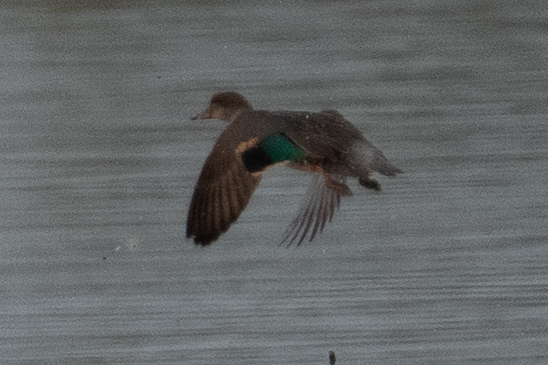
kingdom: Animalia
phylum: Chordata
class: Aves
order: Anseriformes
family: Anatidae
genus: Anas
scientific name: Anas crecca
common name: Eurasian teal
